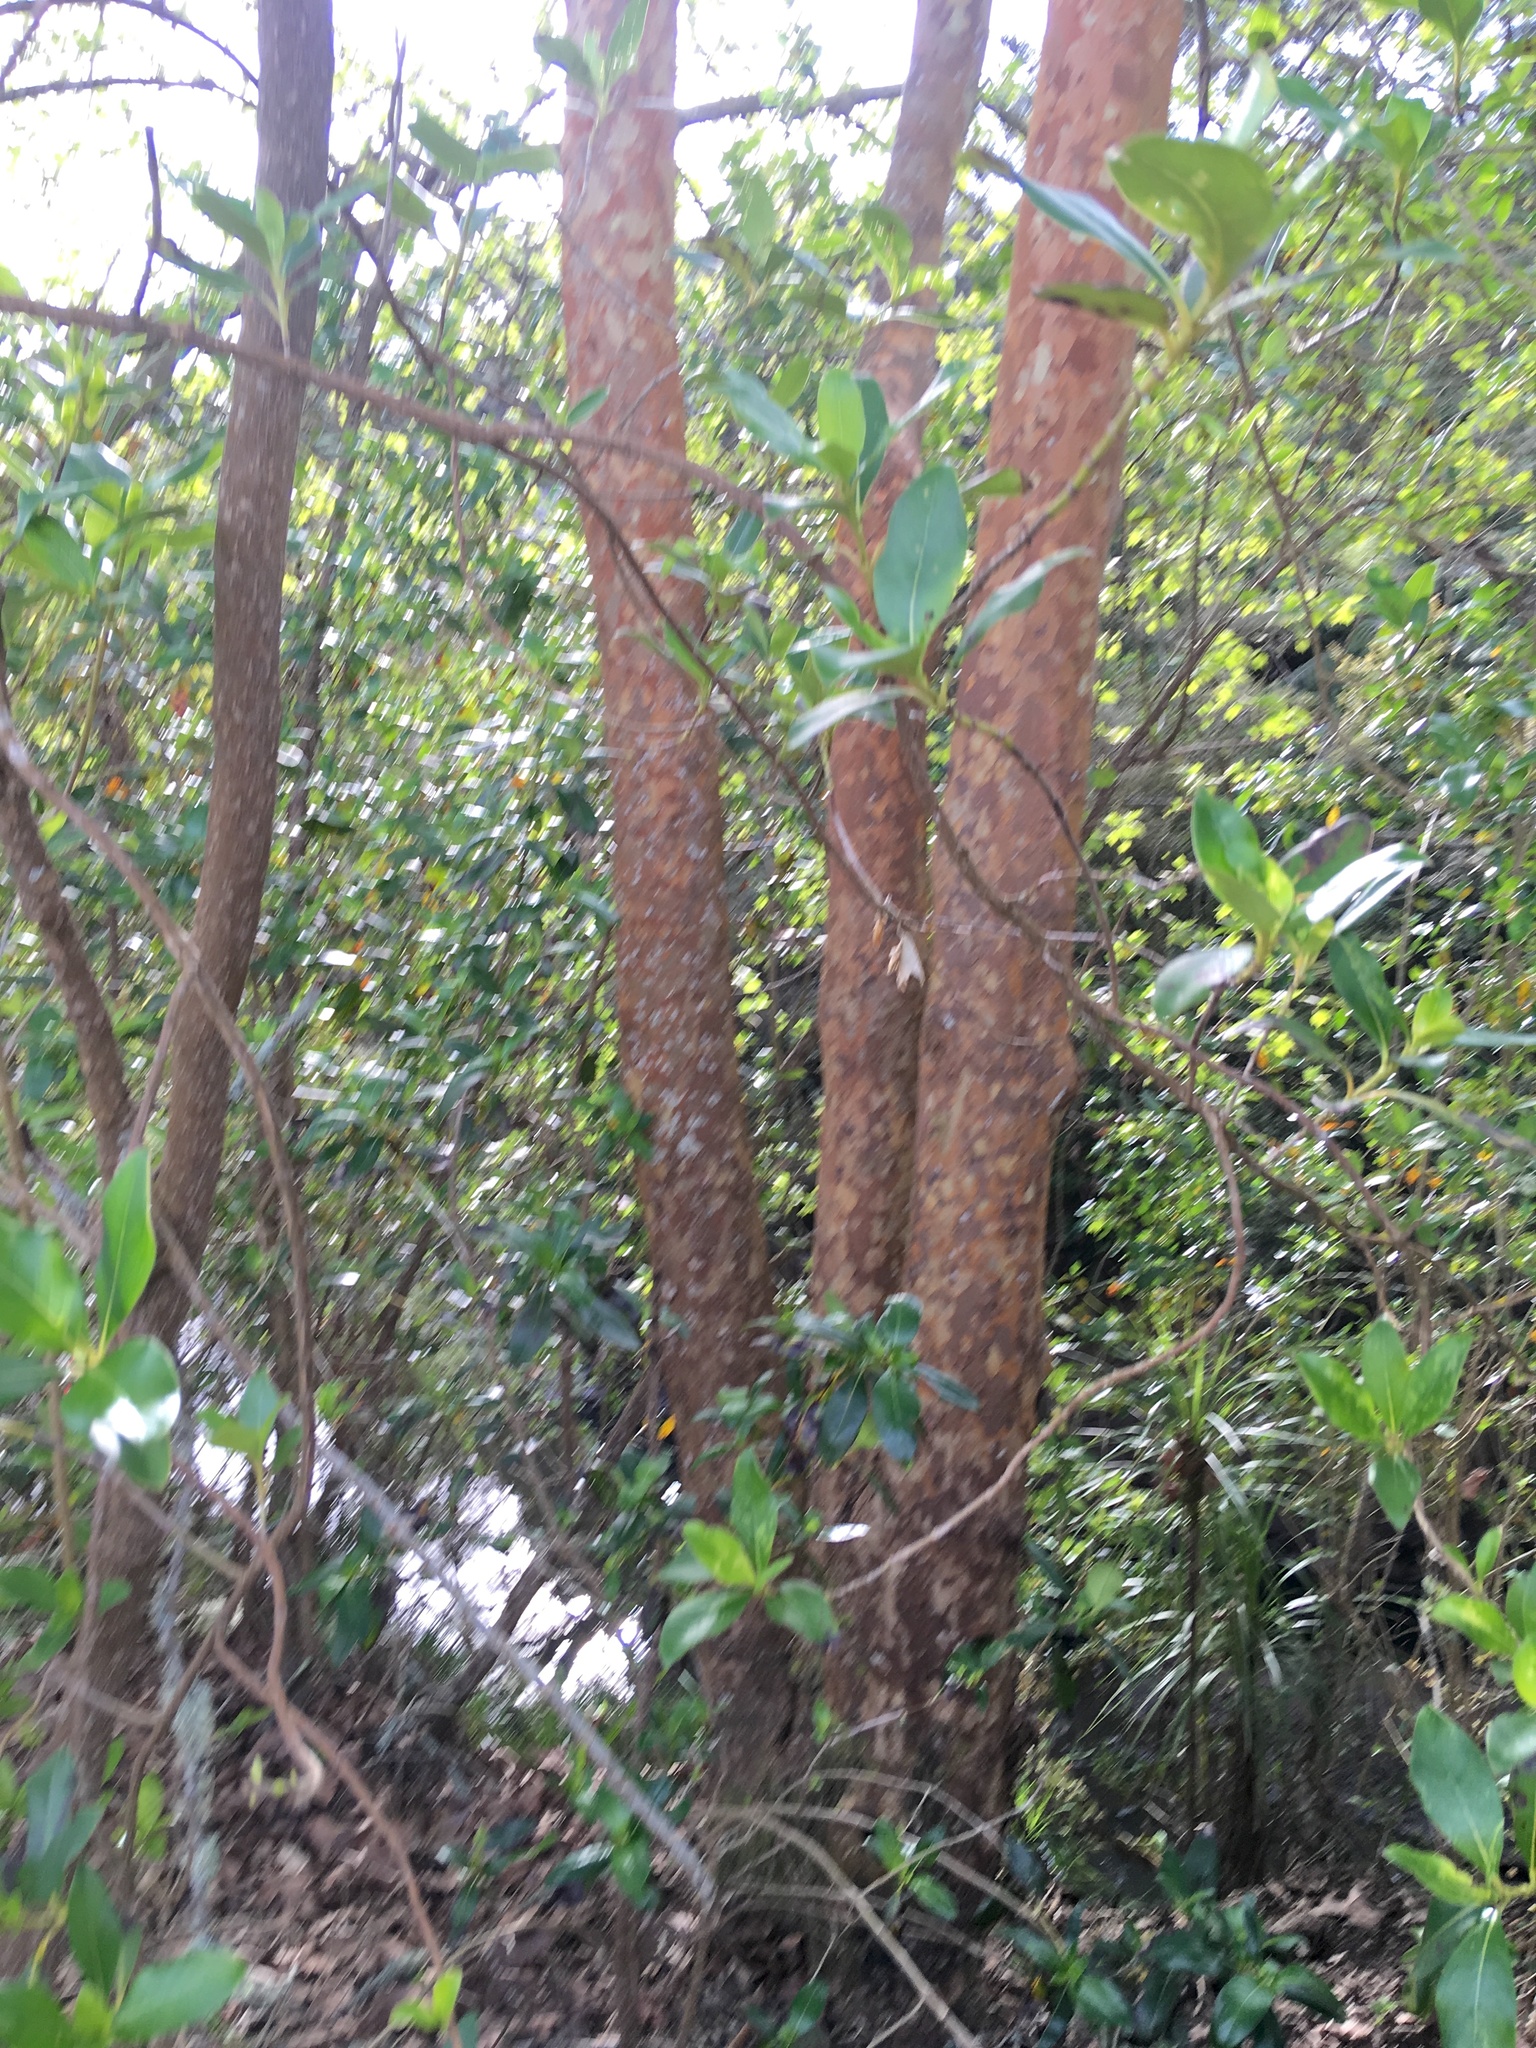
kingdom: Plantae
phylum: Tracheophyta
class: Magnoliopsida
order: Gentianales
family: Rubiaceae
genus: Coprosma
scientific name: Coprosma robusta
